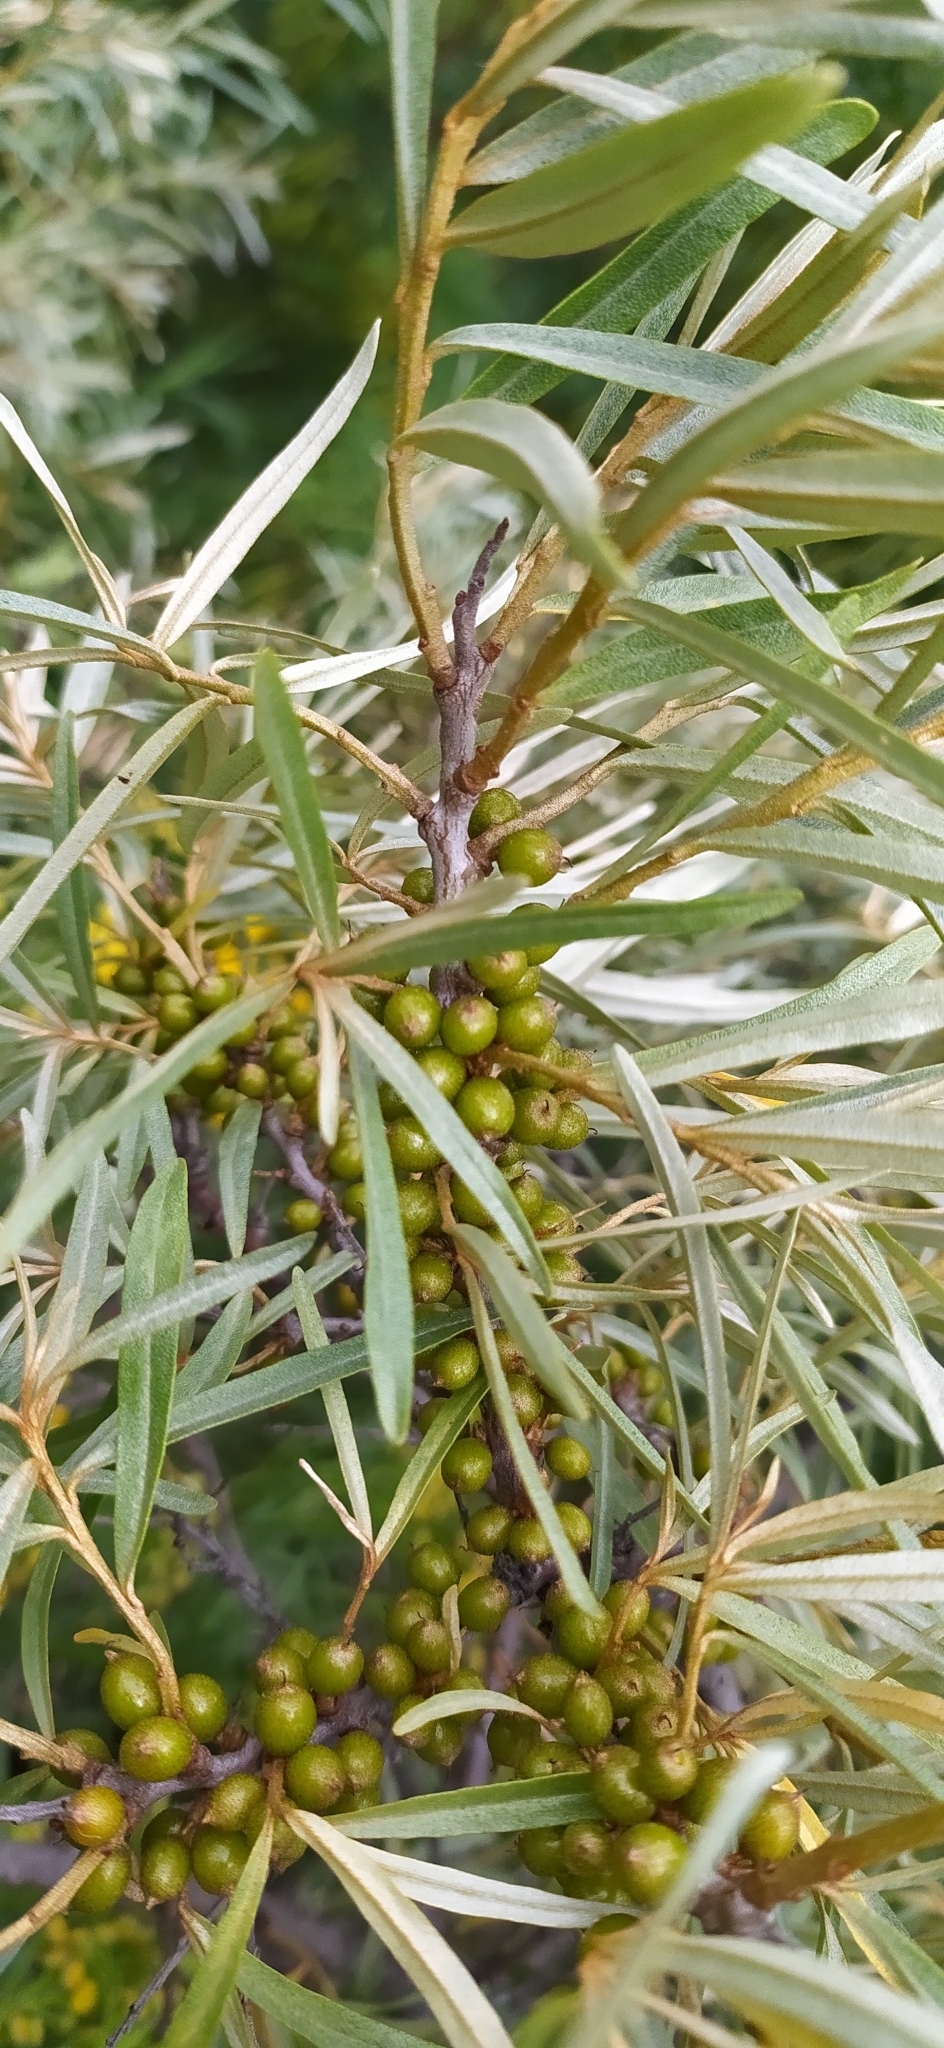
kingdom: Plantae
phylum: Tracheophyta
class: Magnoliopsida
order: Rosales
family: Elaeagnaceae
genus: Hippophae
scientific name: Hippophae rhamnoides
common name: Sea-buckthorn
